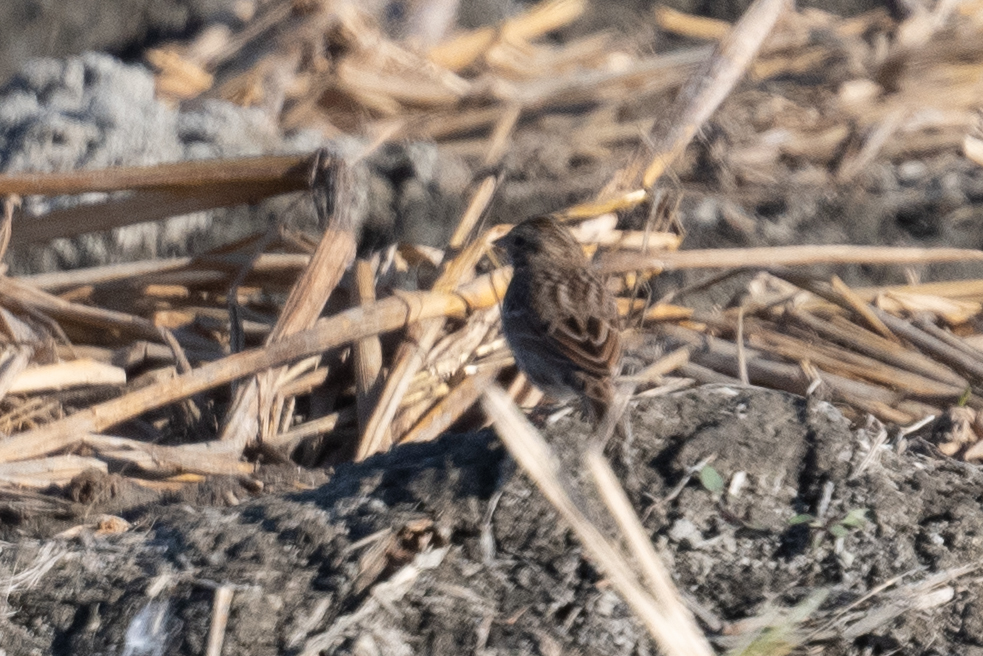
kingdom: Animalia
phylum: Chordata
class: Aves
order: Passeriformes
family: Passerellidae
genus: Passerculus
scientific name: Passerculus sandwichensis
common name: Savannah sparrow
